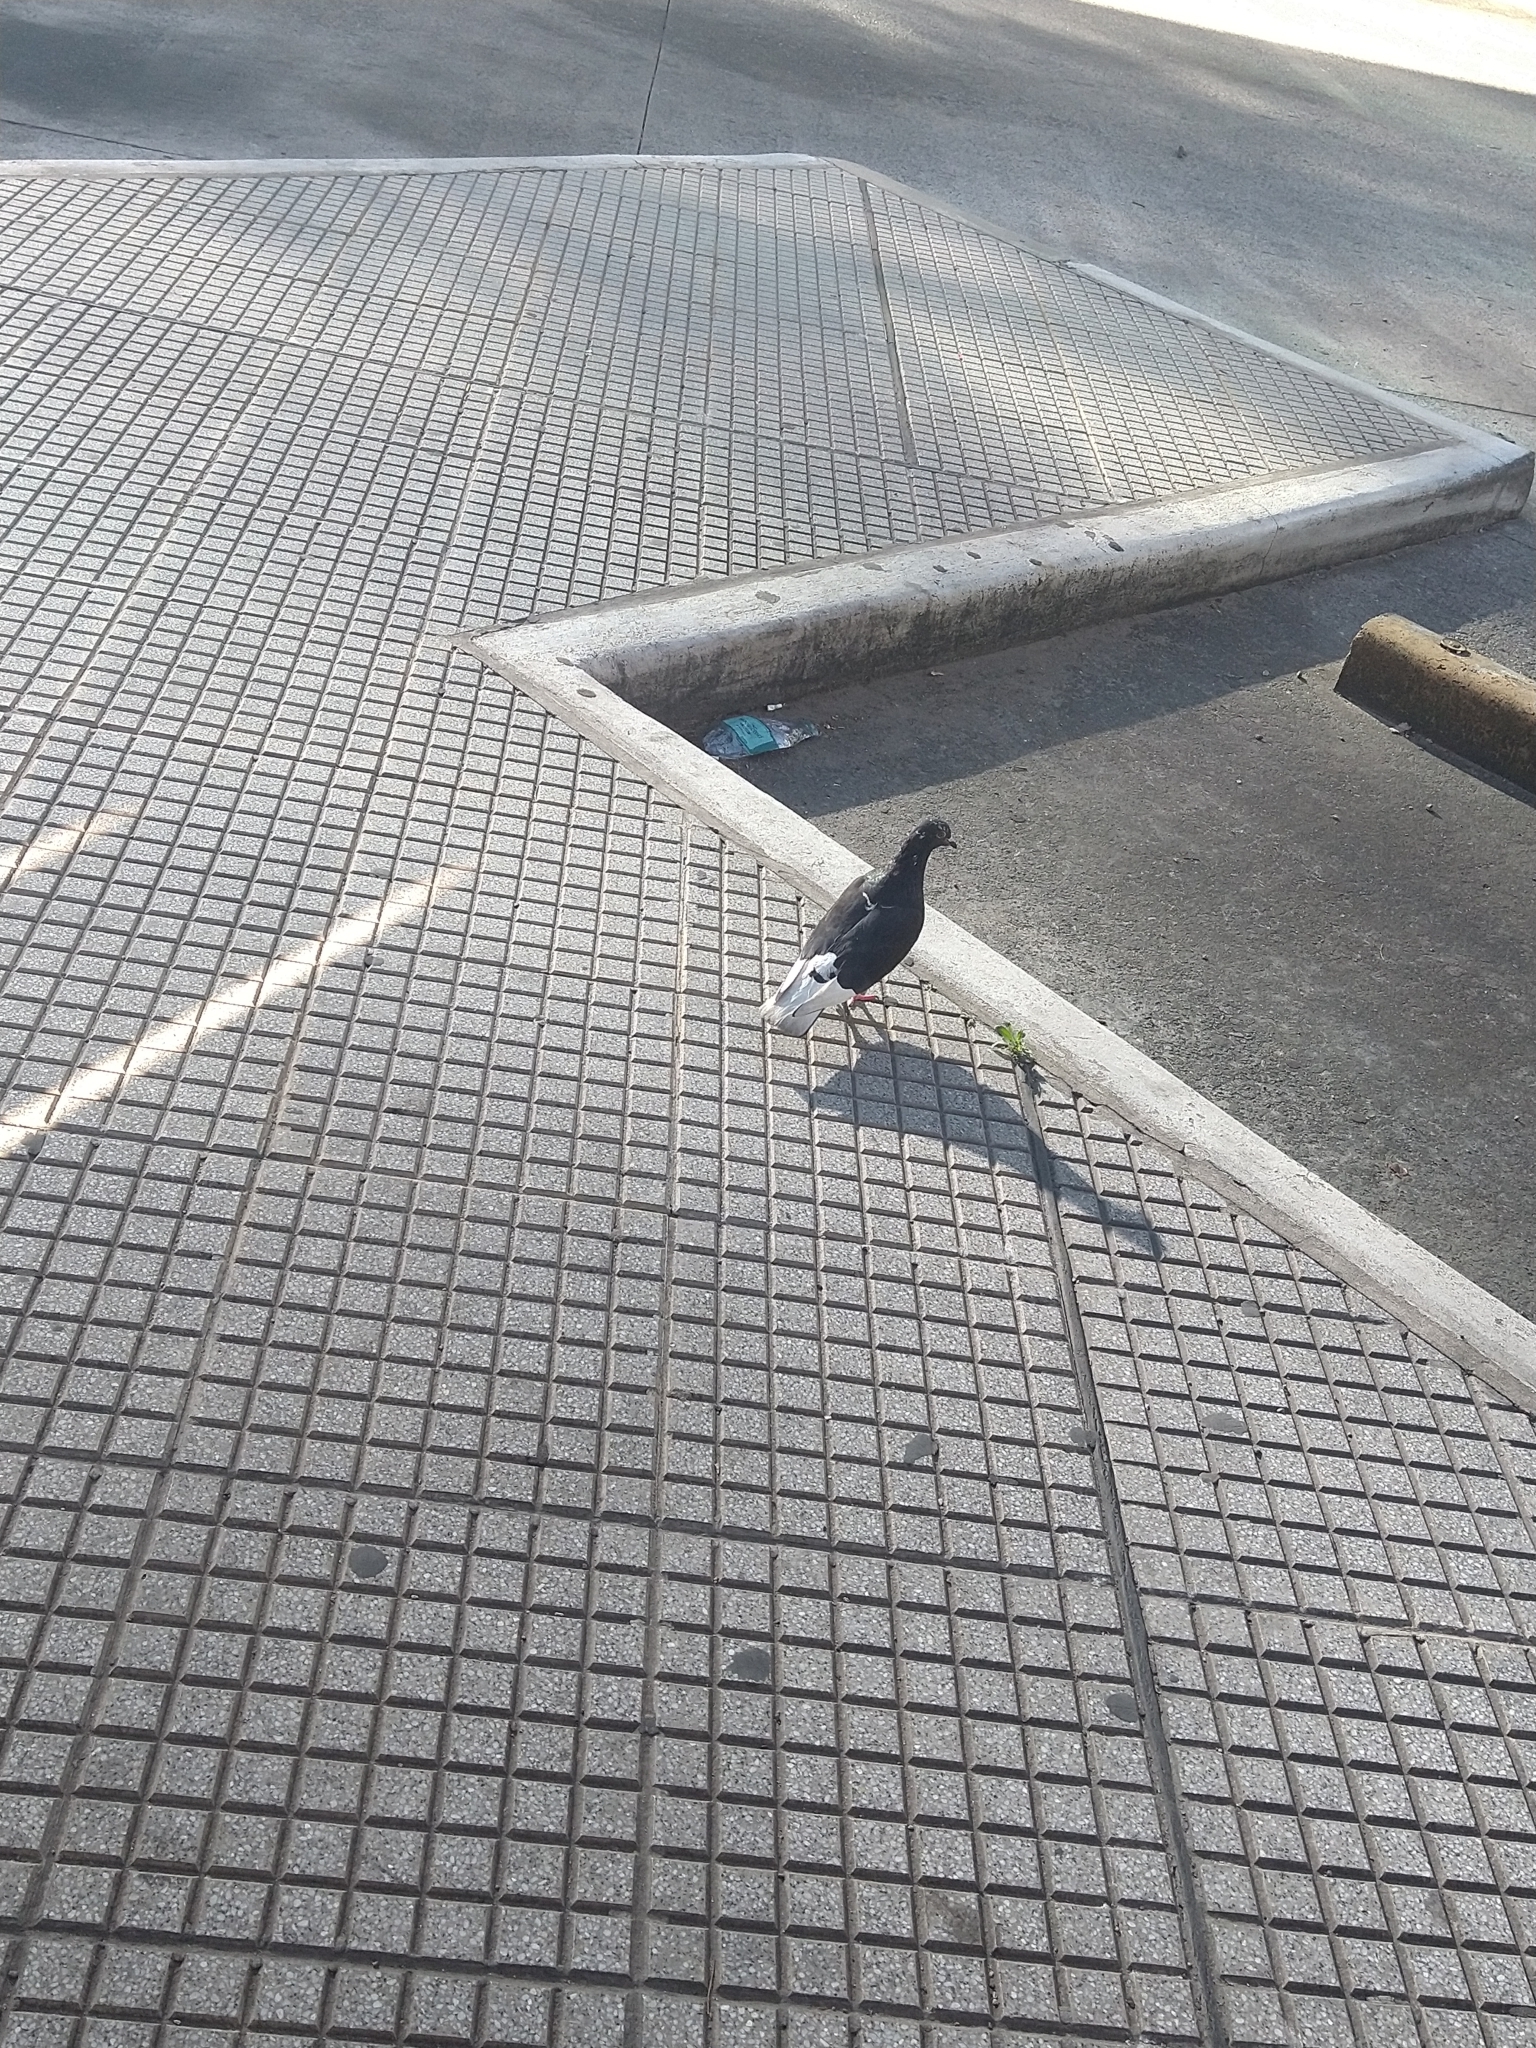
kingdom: Animalia
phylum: Chordata
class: Aves
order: Columbiformes
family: Columbidae
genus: Columba
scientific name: Columba livia
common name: Rock pigeon
